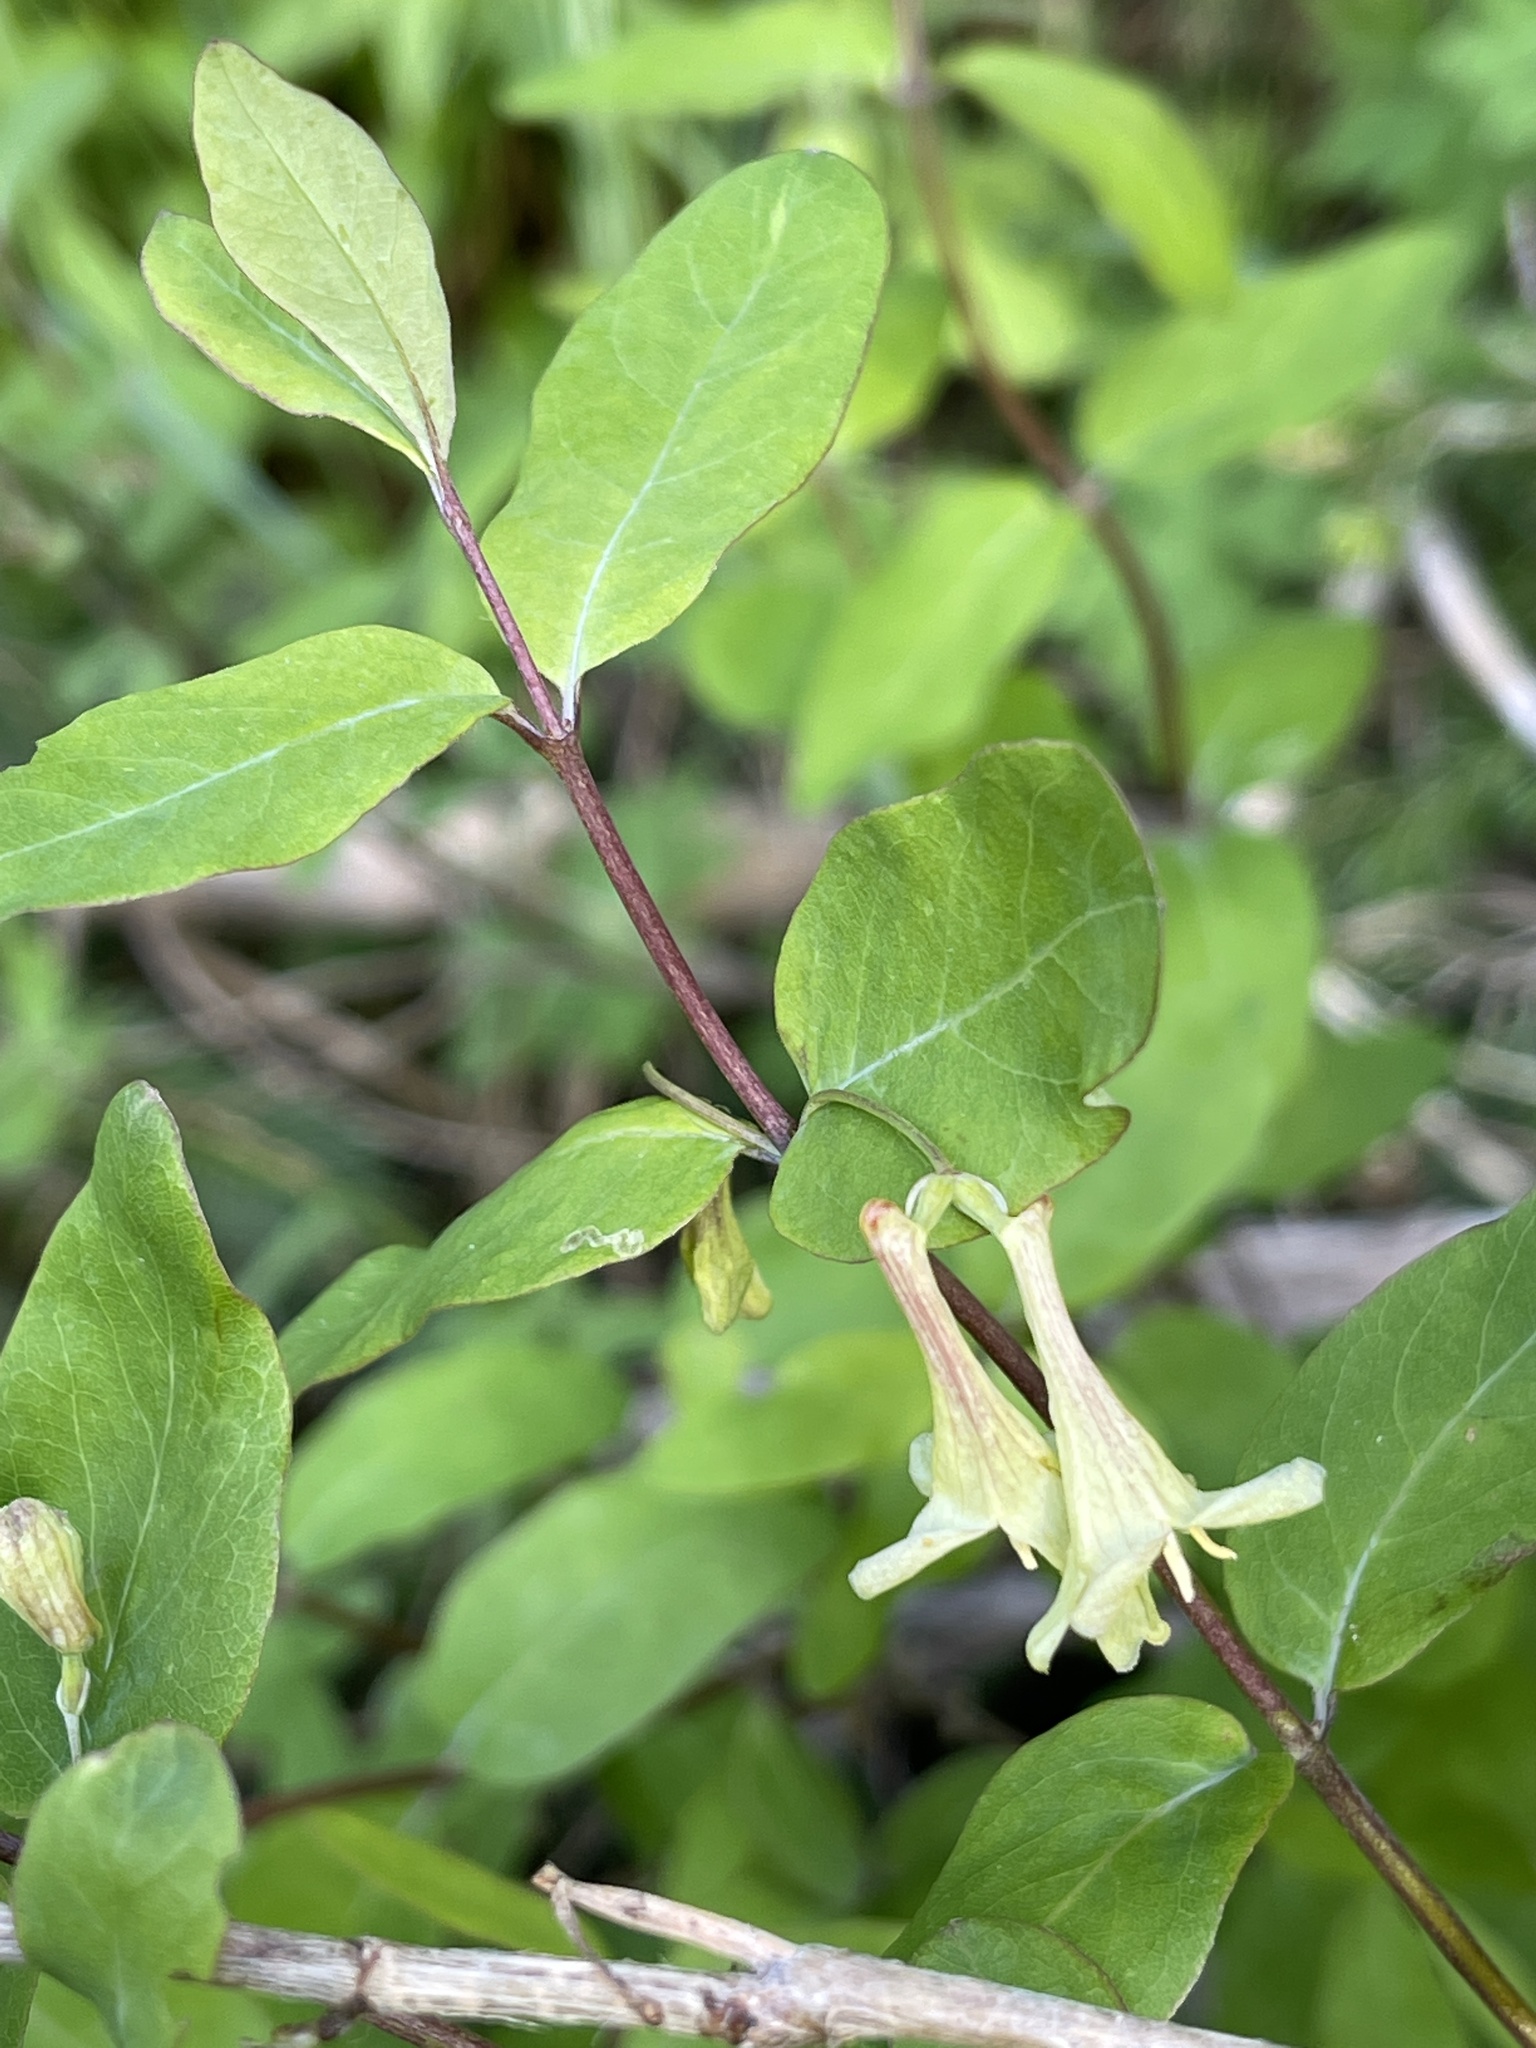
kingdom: Plantae
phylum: Tracheophyta
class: Magnoliopsida
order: Dipsacales
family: Caprifoliaceae
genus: Lonicera
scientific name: Lonicera utahensis
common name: Utah honeysuckle
